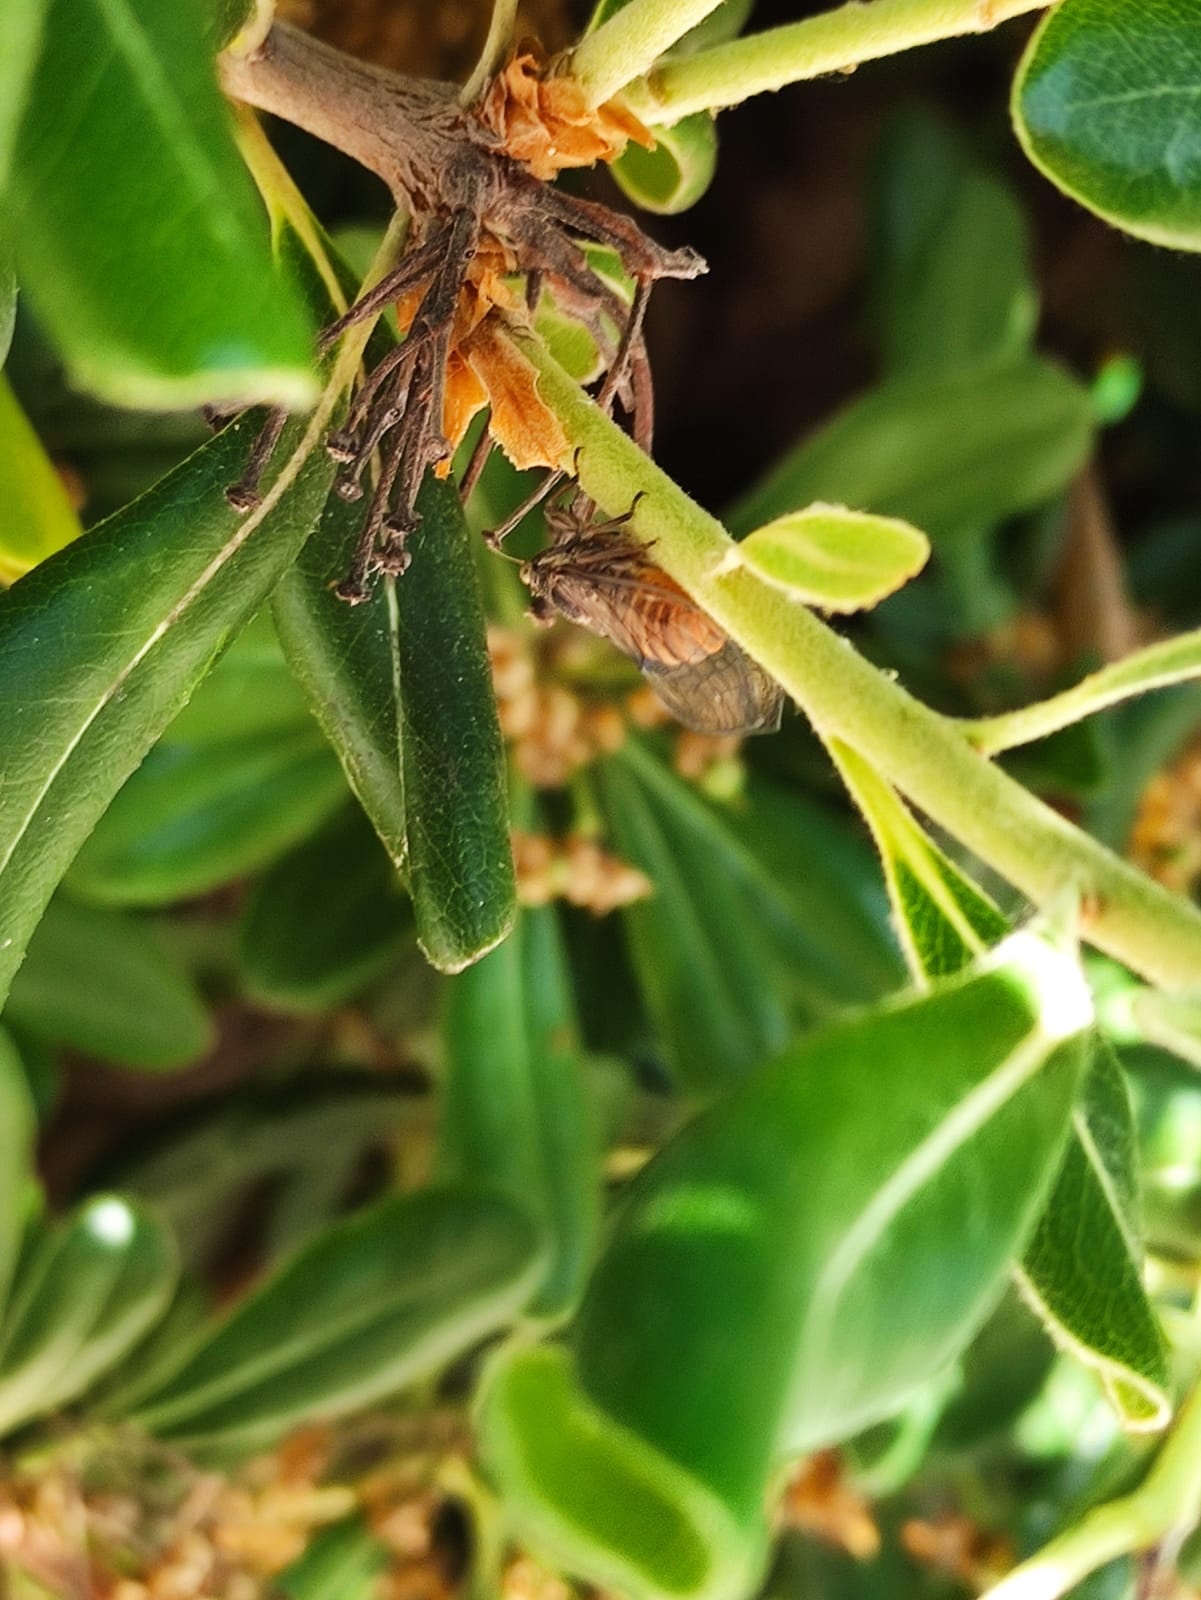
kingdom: Animalia
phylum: Arthropoda
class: Insecta
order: Hemiptera
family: Cicadidae
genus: Pagiphora
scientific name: Pagiphora annulata
